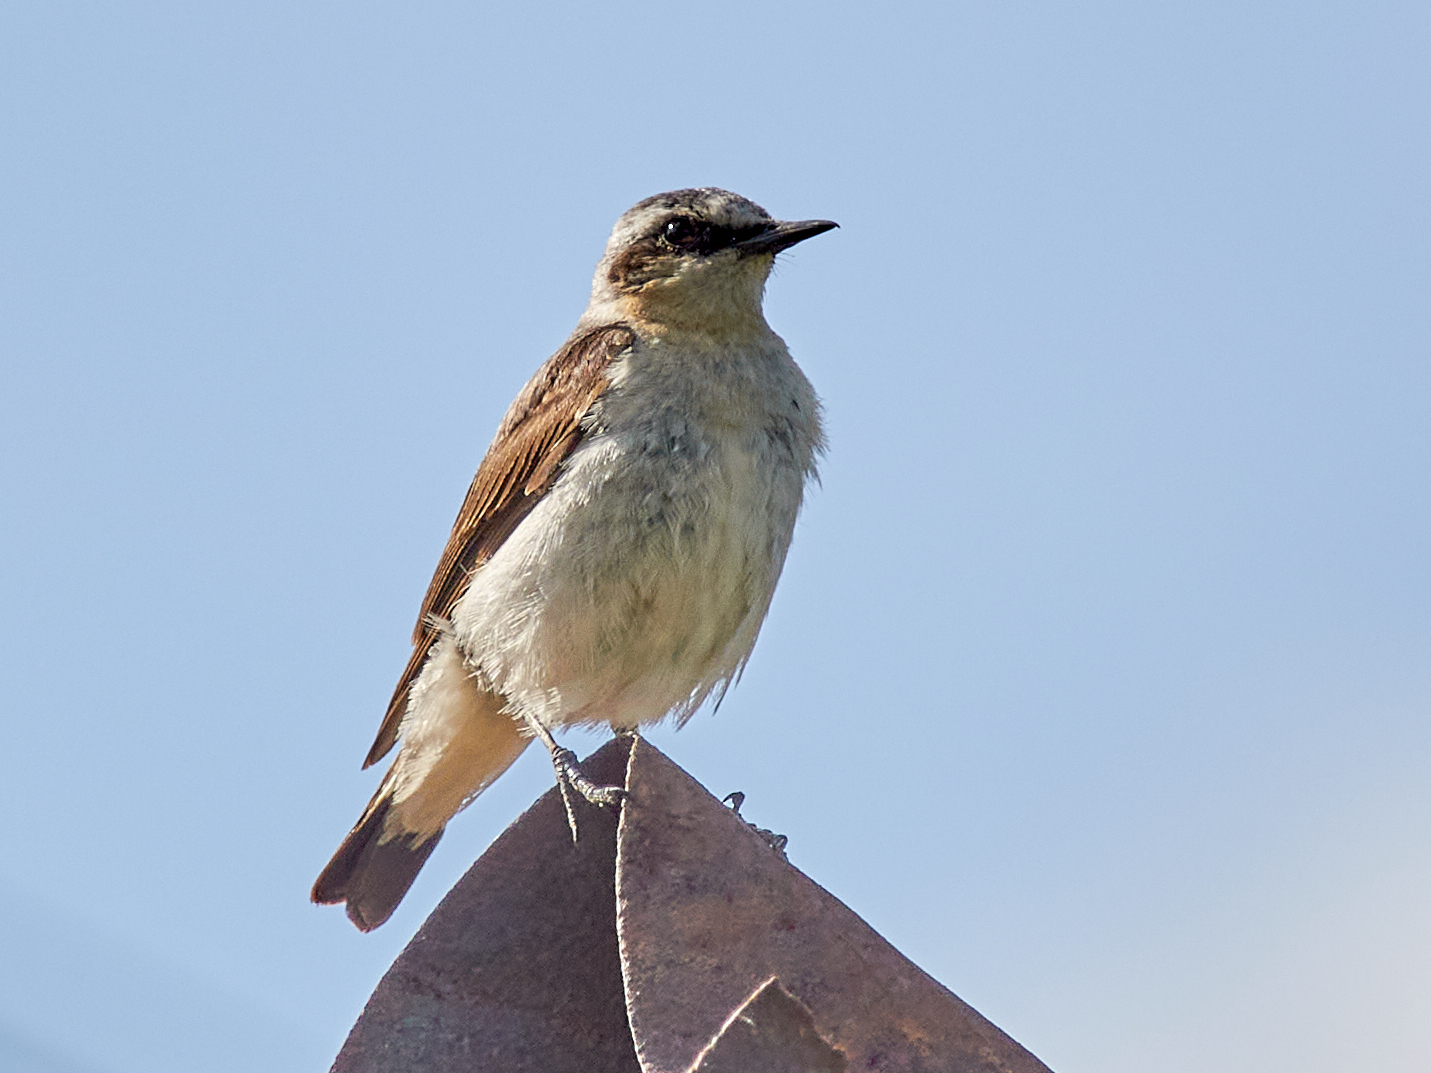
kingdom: Animalia
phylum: Chordata
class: Aves
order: Passeriformes
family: Muscicapidae
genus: Oenanthe
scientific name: Oenanthe oenanthe
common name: Northern wheatear
